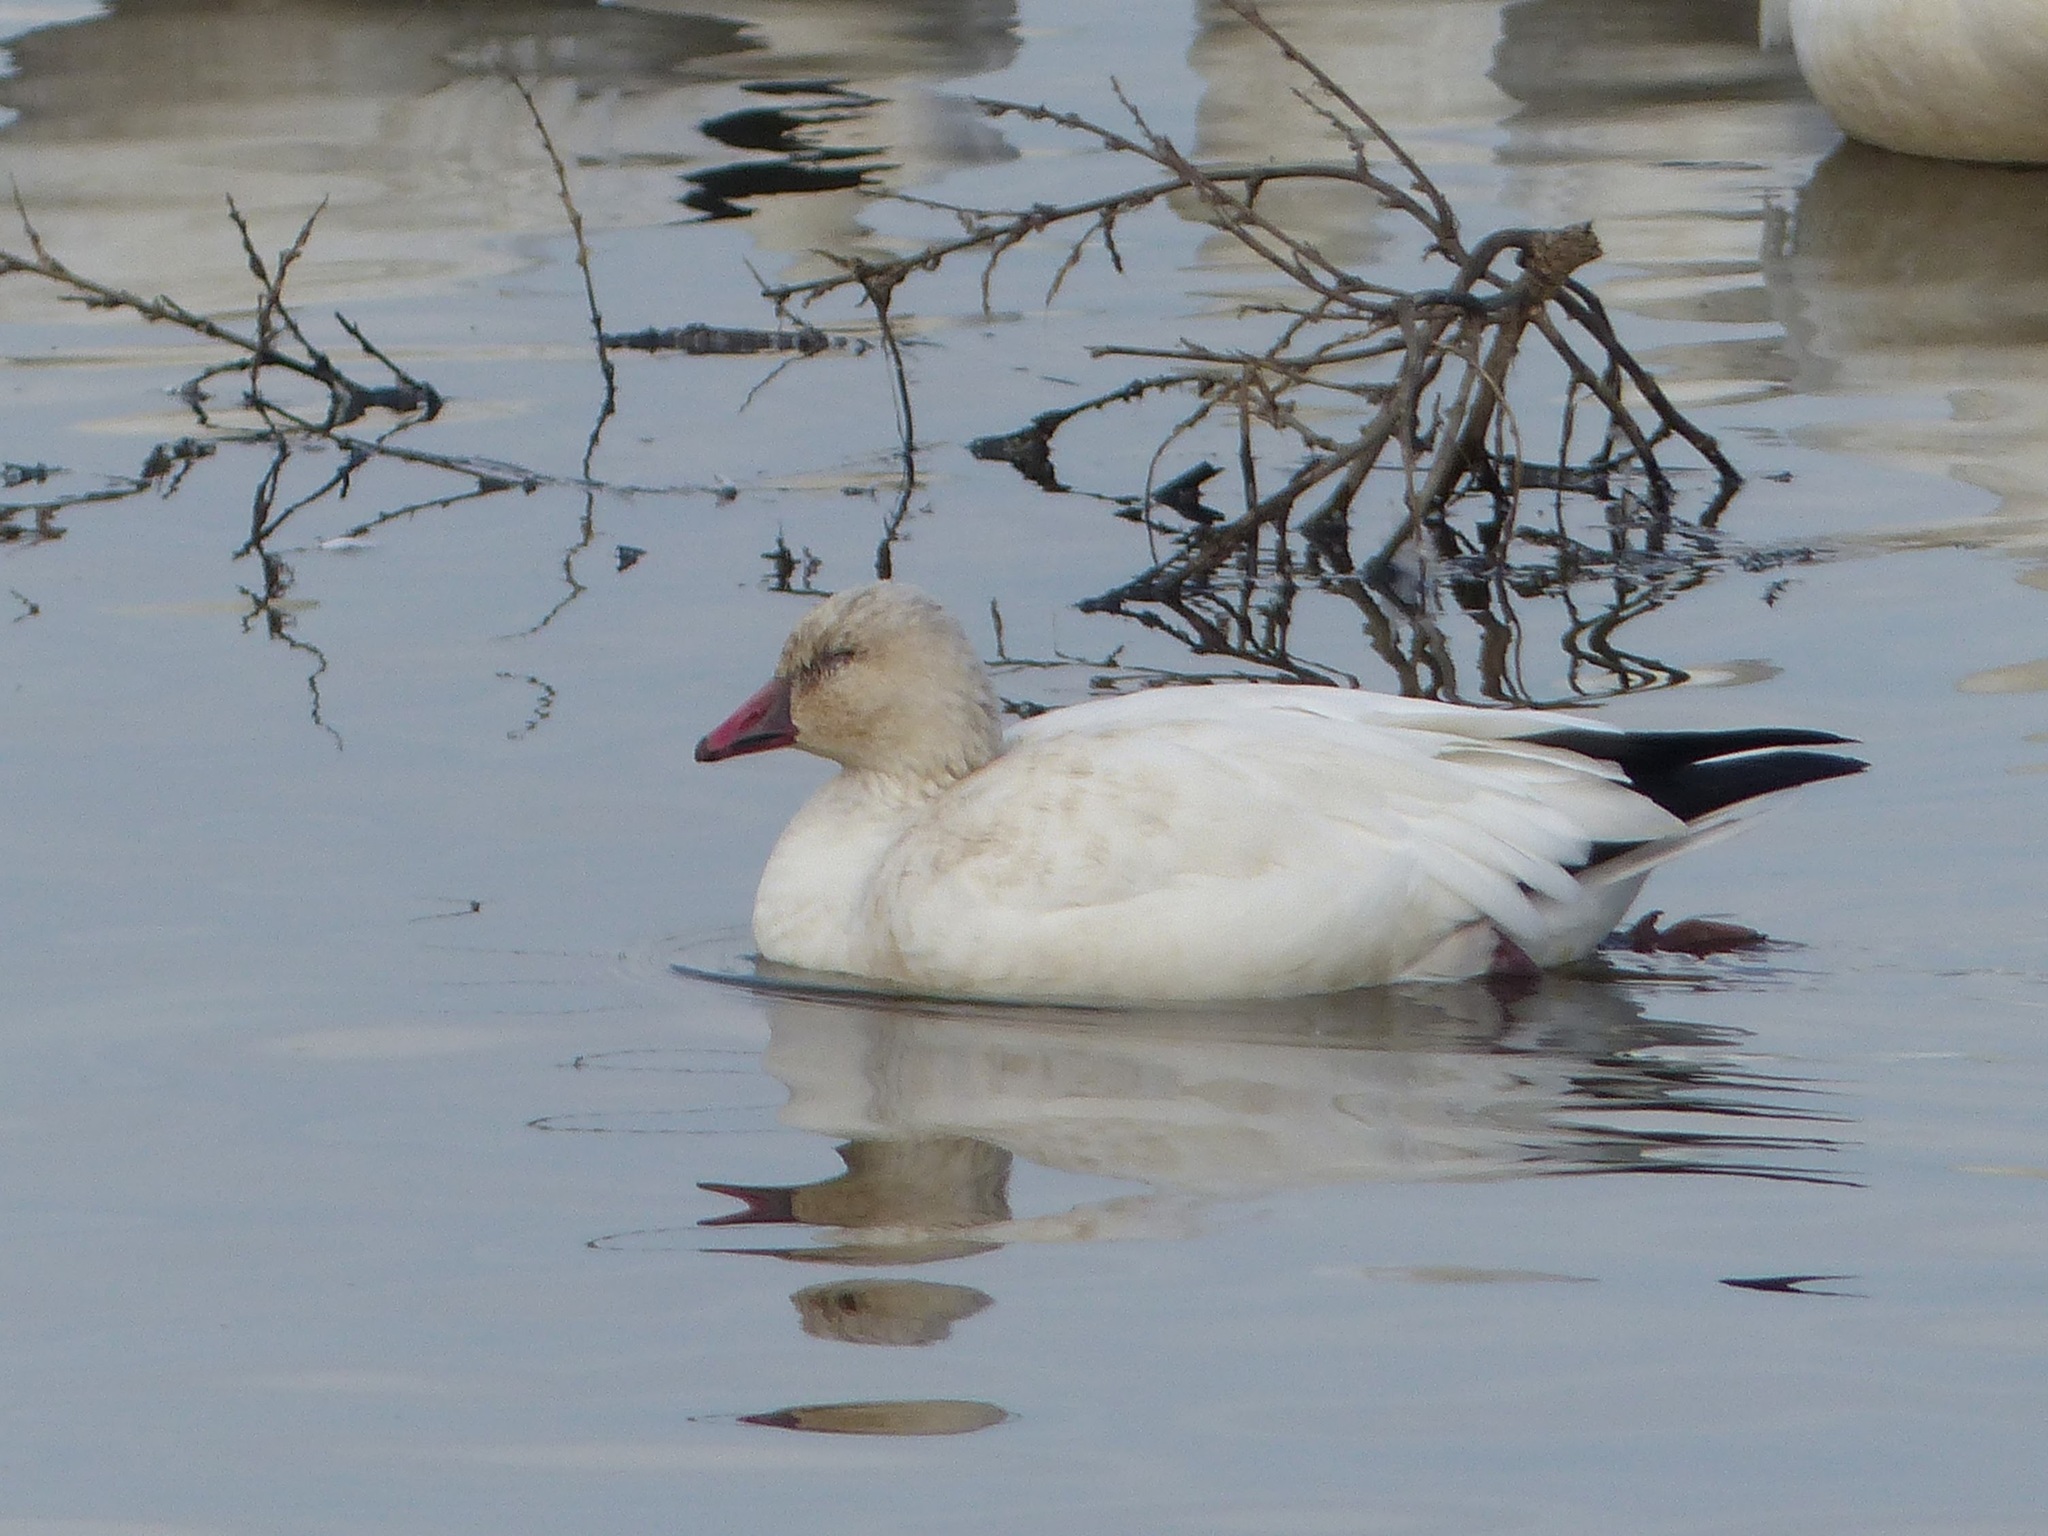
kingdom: Animalia
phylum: Chordata
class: Aves
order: Anseriformes
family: Anatidae
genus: Anser
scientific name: Anser rossii
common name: Ross's goose
